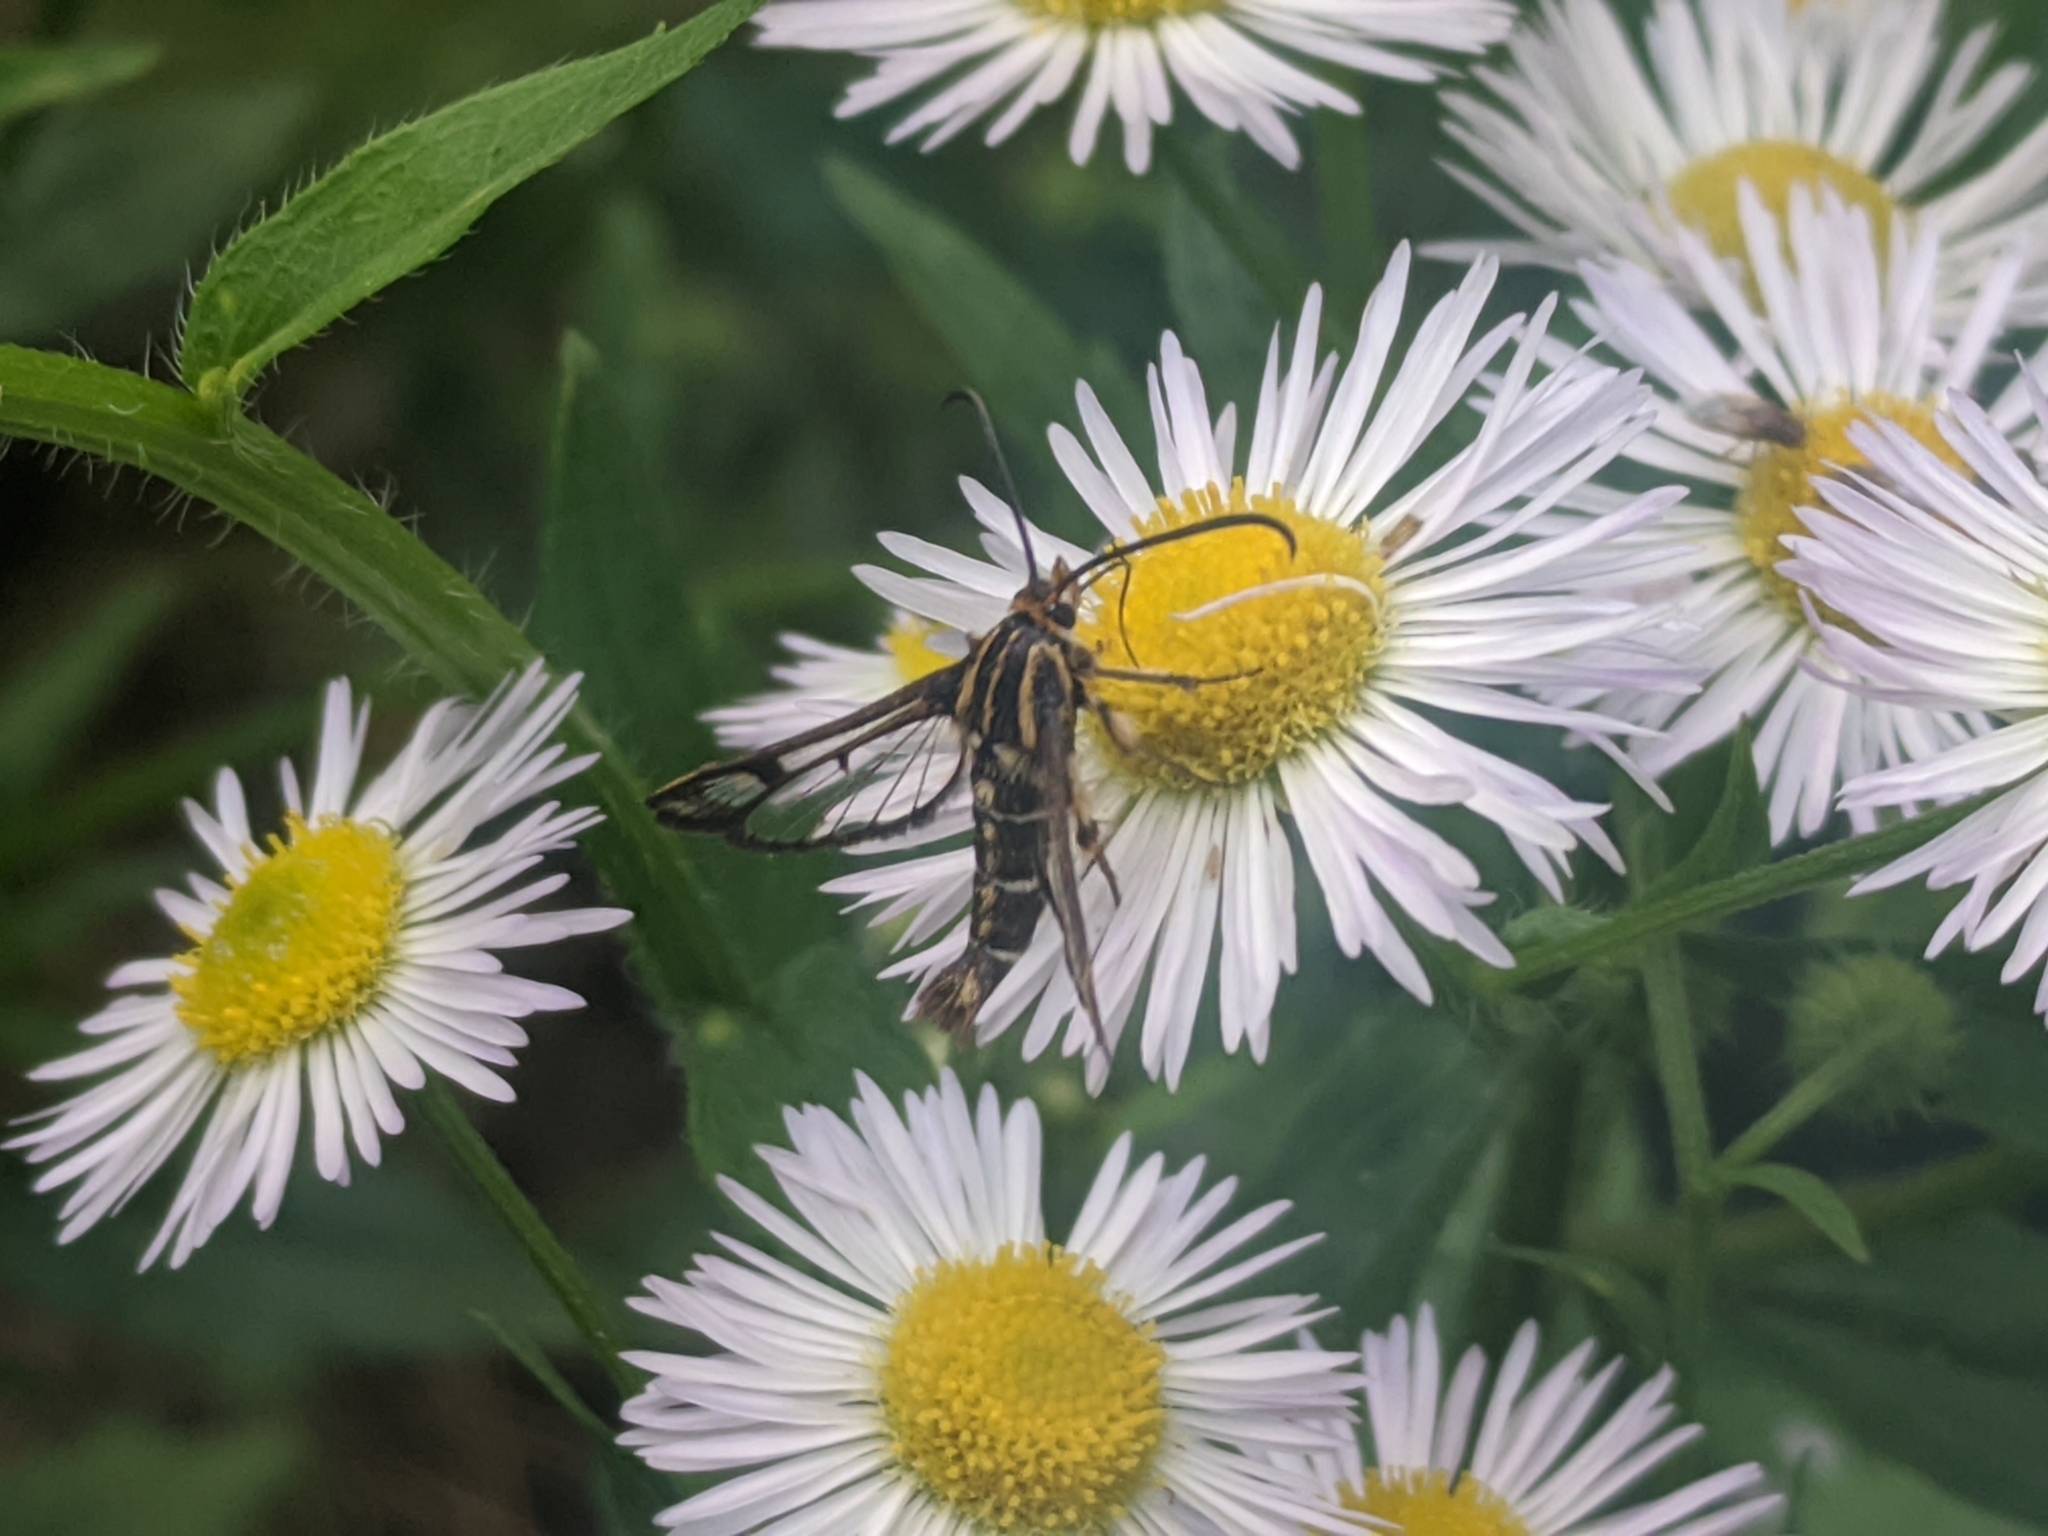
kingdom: Animalia
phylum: Arthropoda
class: Insecta
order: Lepidoptera
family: Sesiidae
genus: Pyropteron
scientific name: Pyropteron triannuliformis
